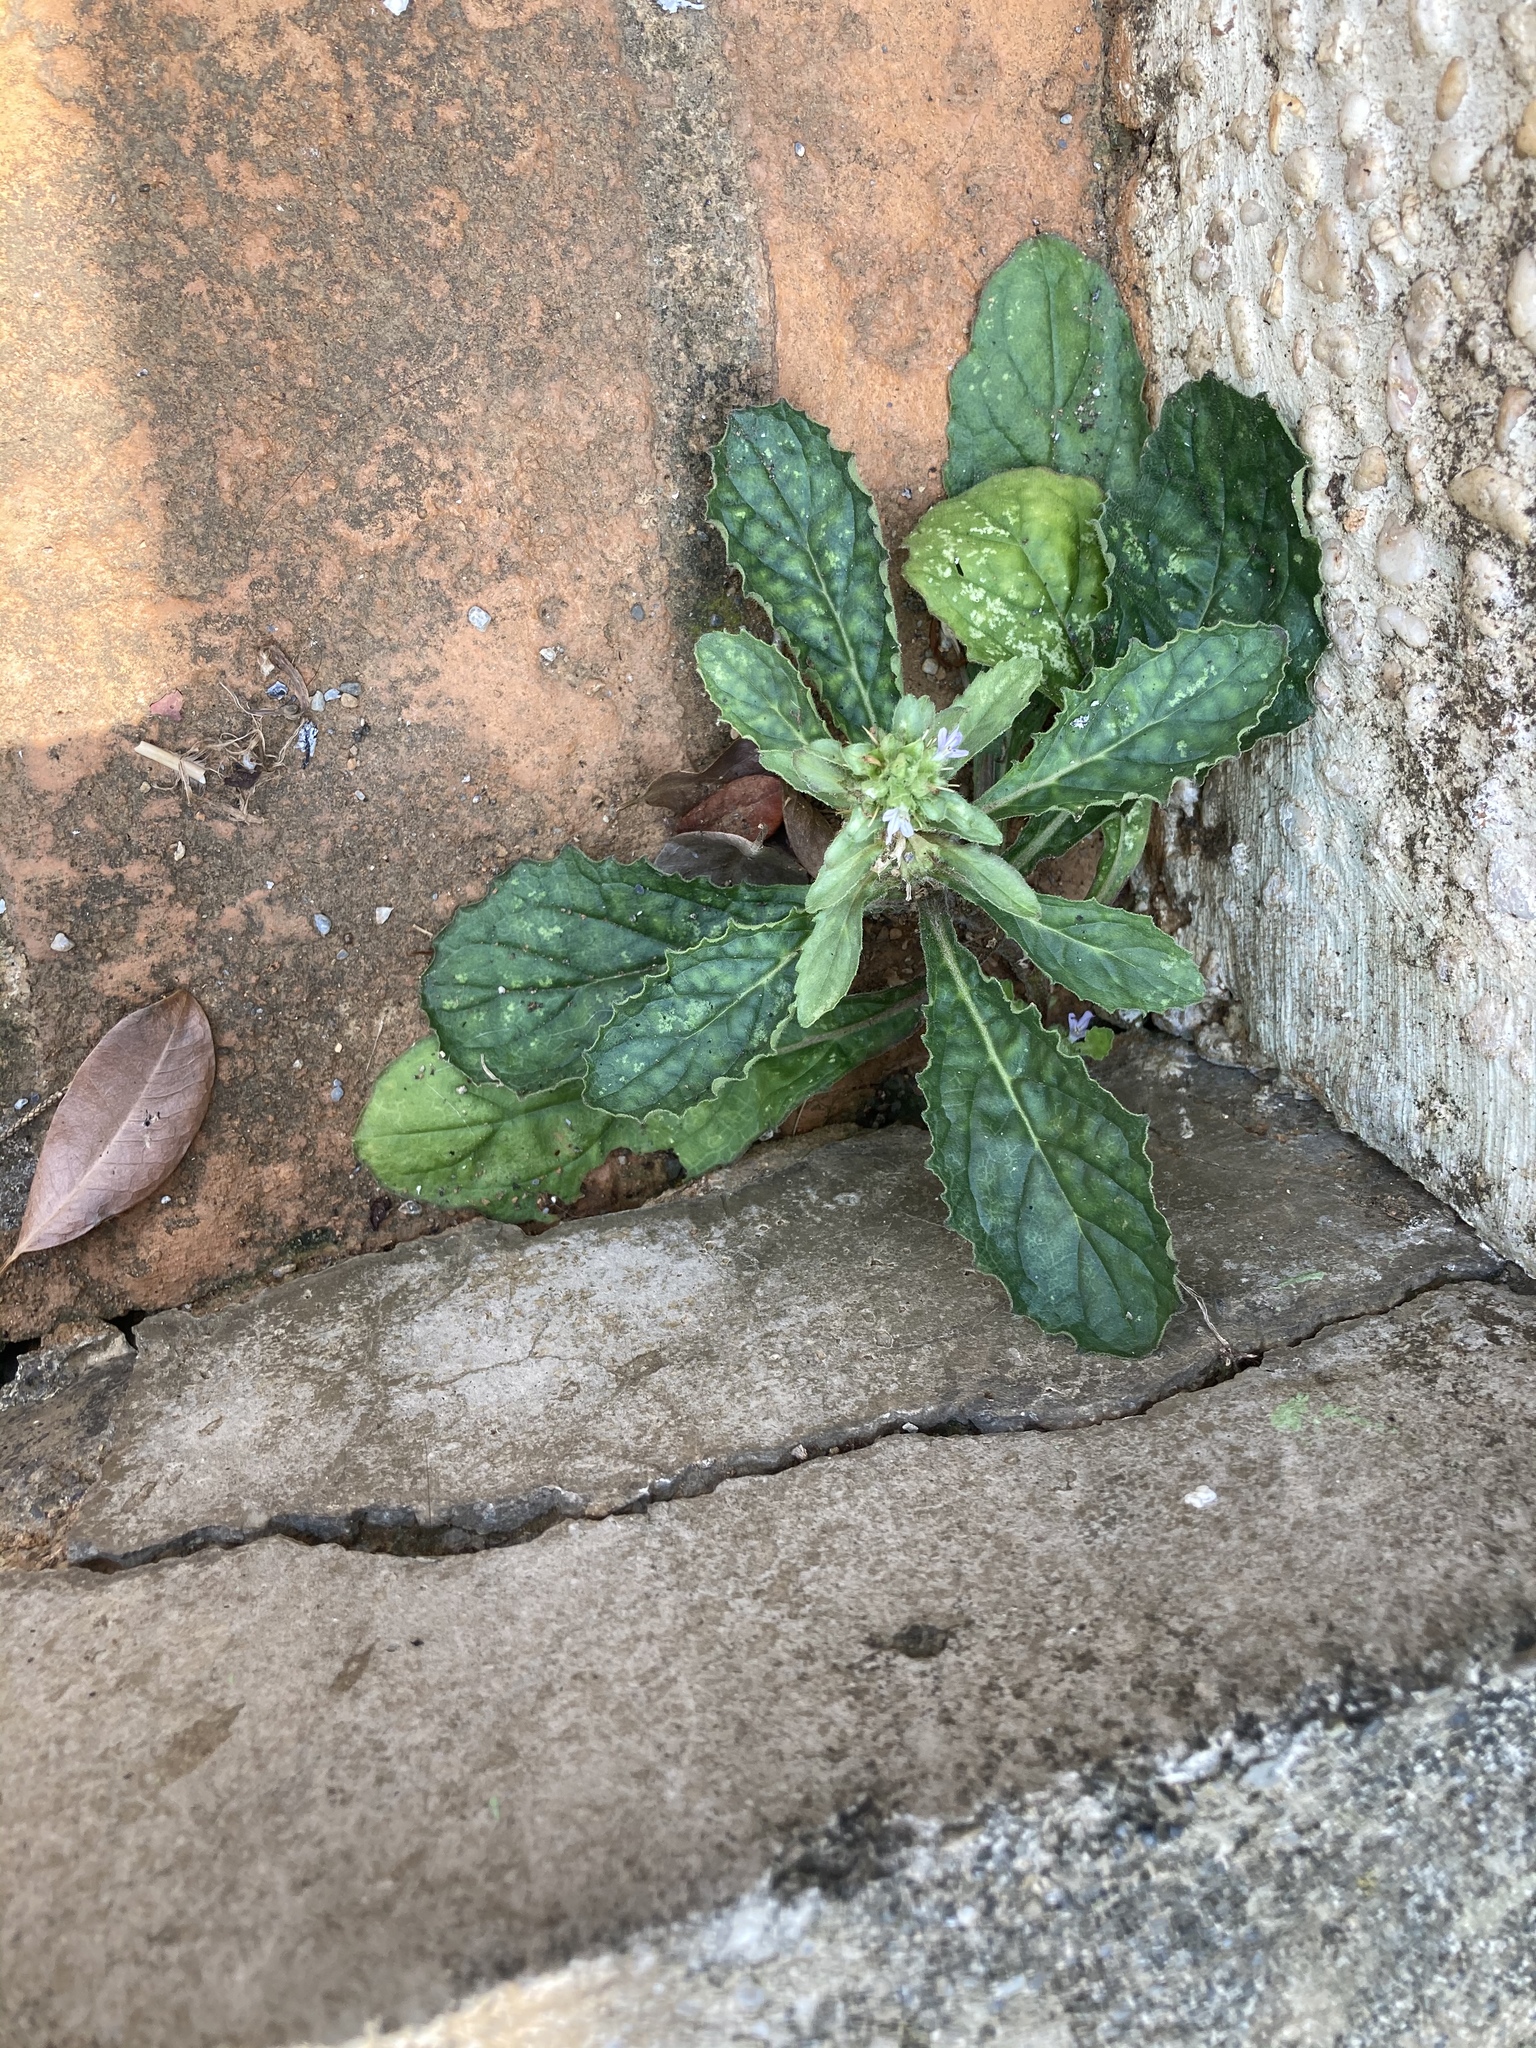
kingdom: Plantae
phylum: Tracheophyta
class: Magnoliopsida
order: Lamiales
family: Lamiaceae
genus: Ajuga
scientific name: Ajuga taiwanensis
